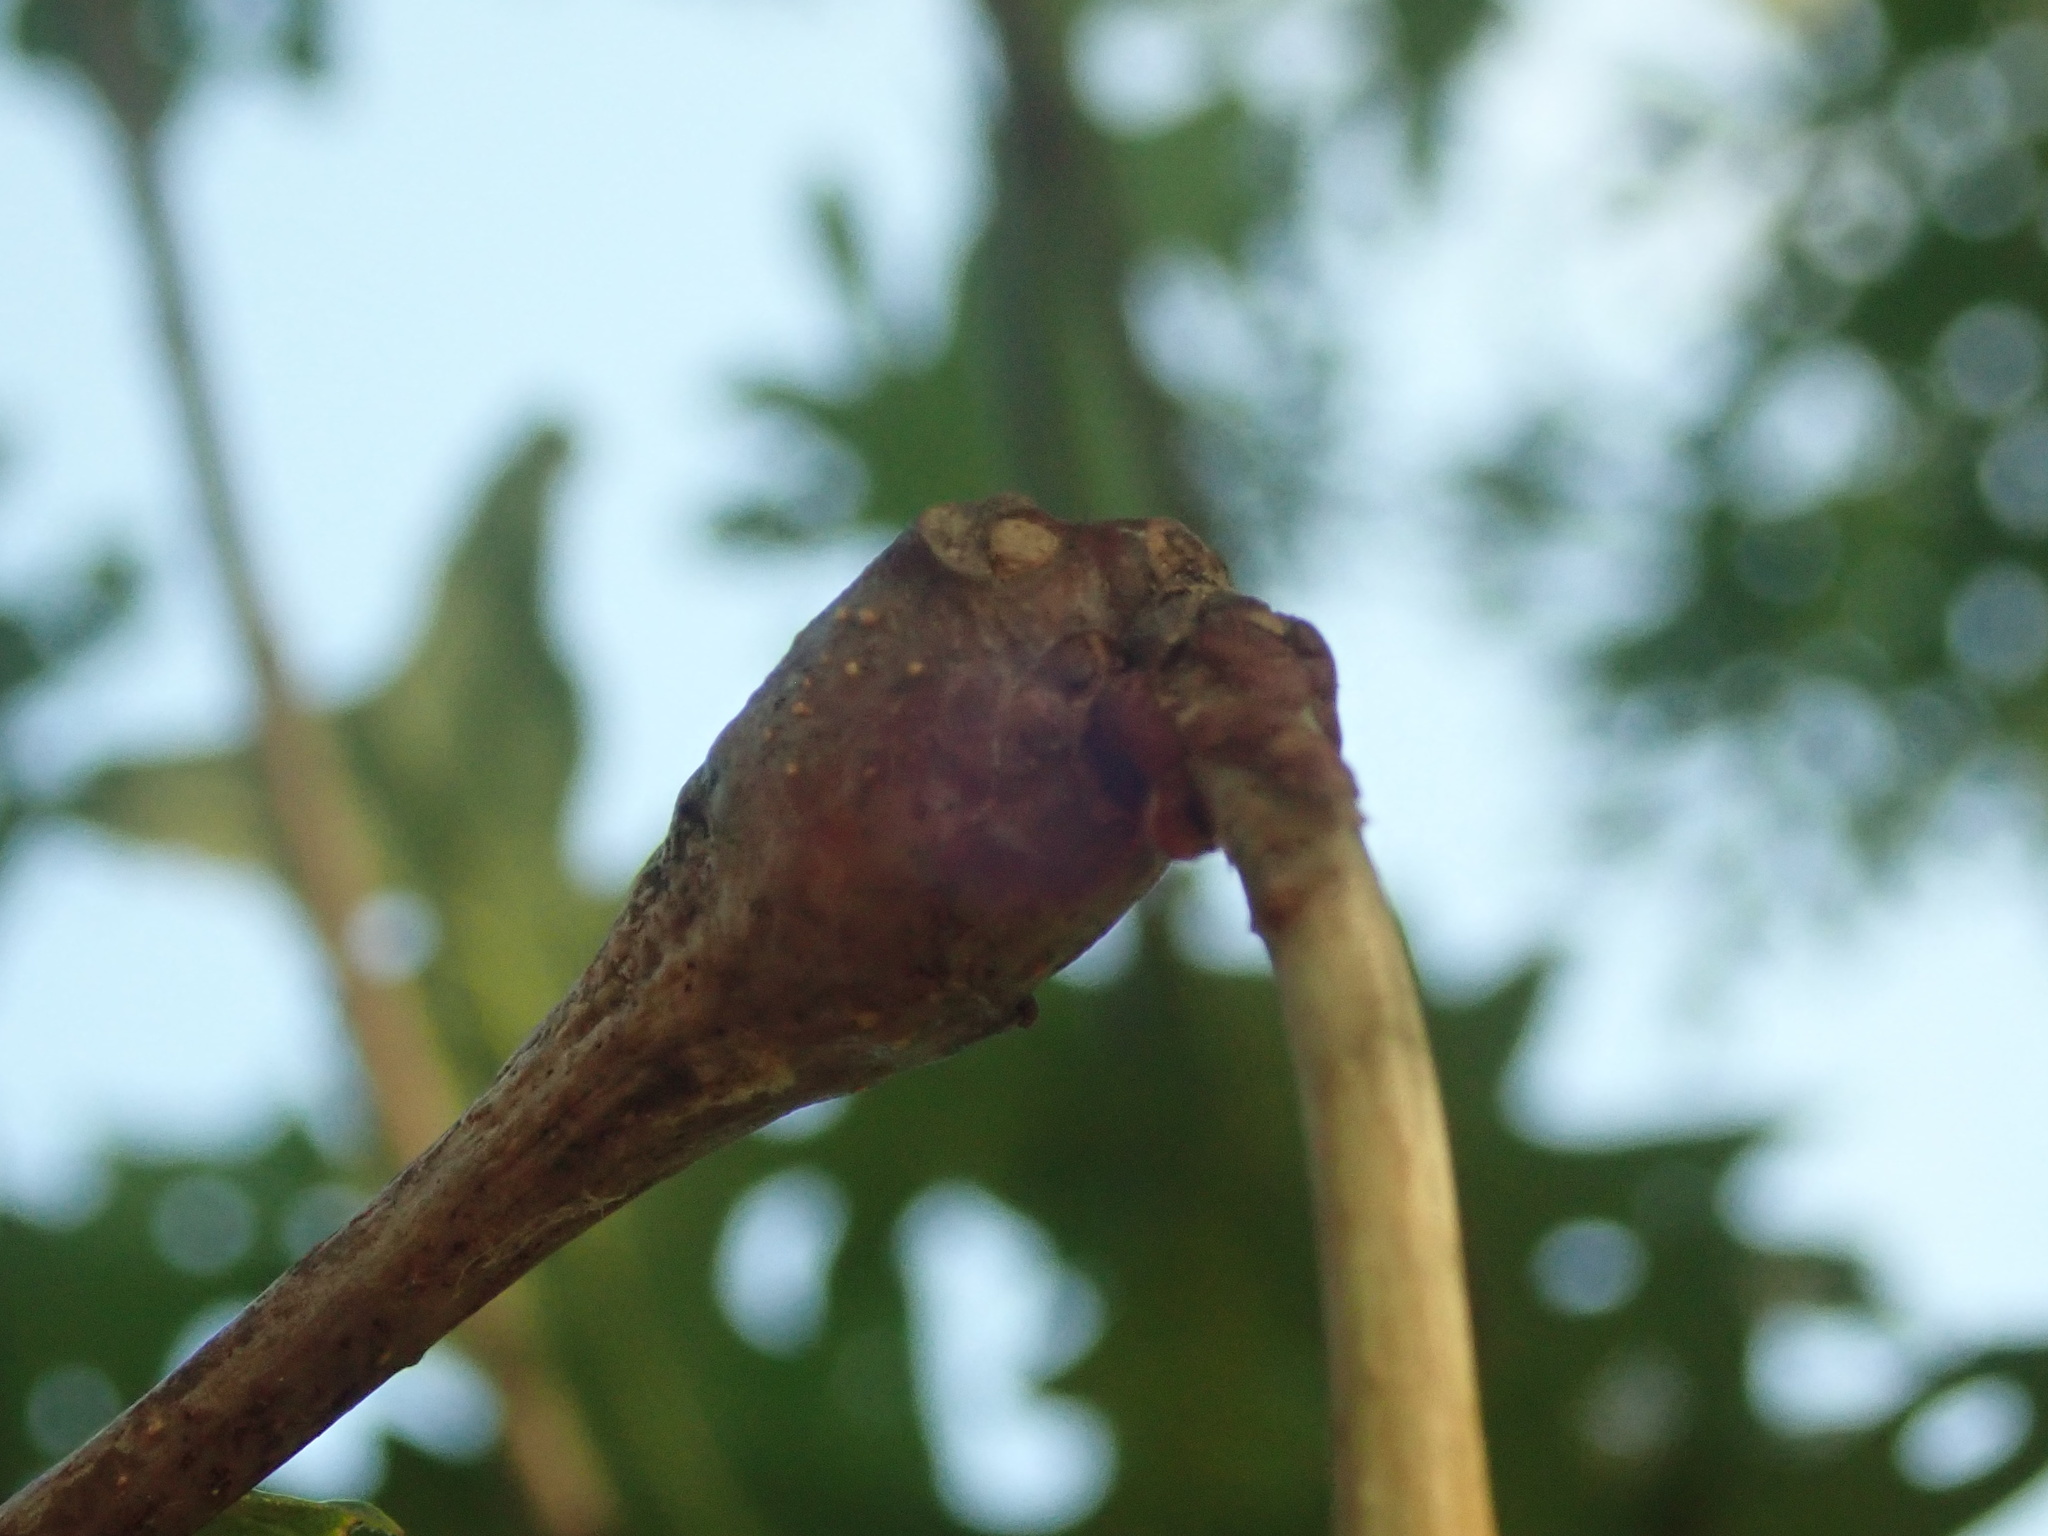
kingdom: Animalia
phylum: Arthropoda
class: Insecta
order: Hymenoptera
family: Cynipidae
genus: Callirhytis
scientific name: Callirhytis clavula
